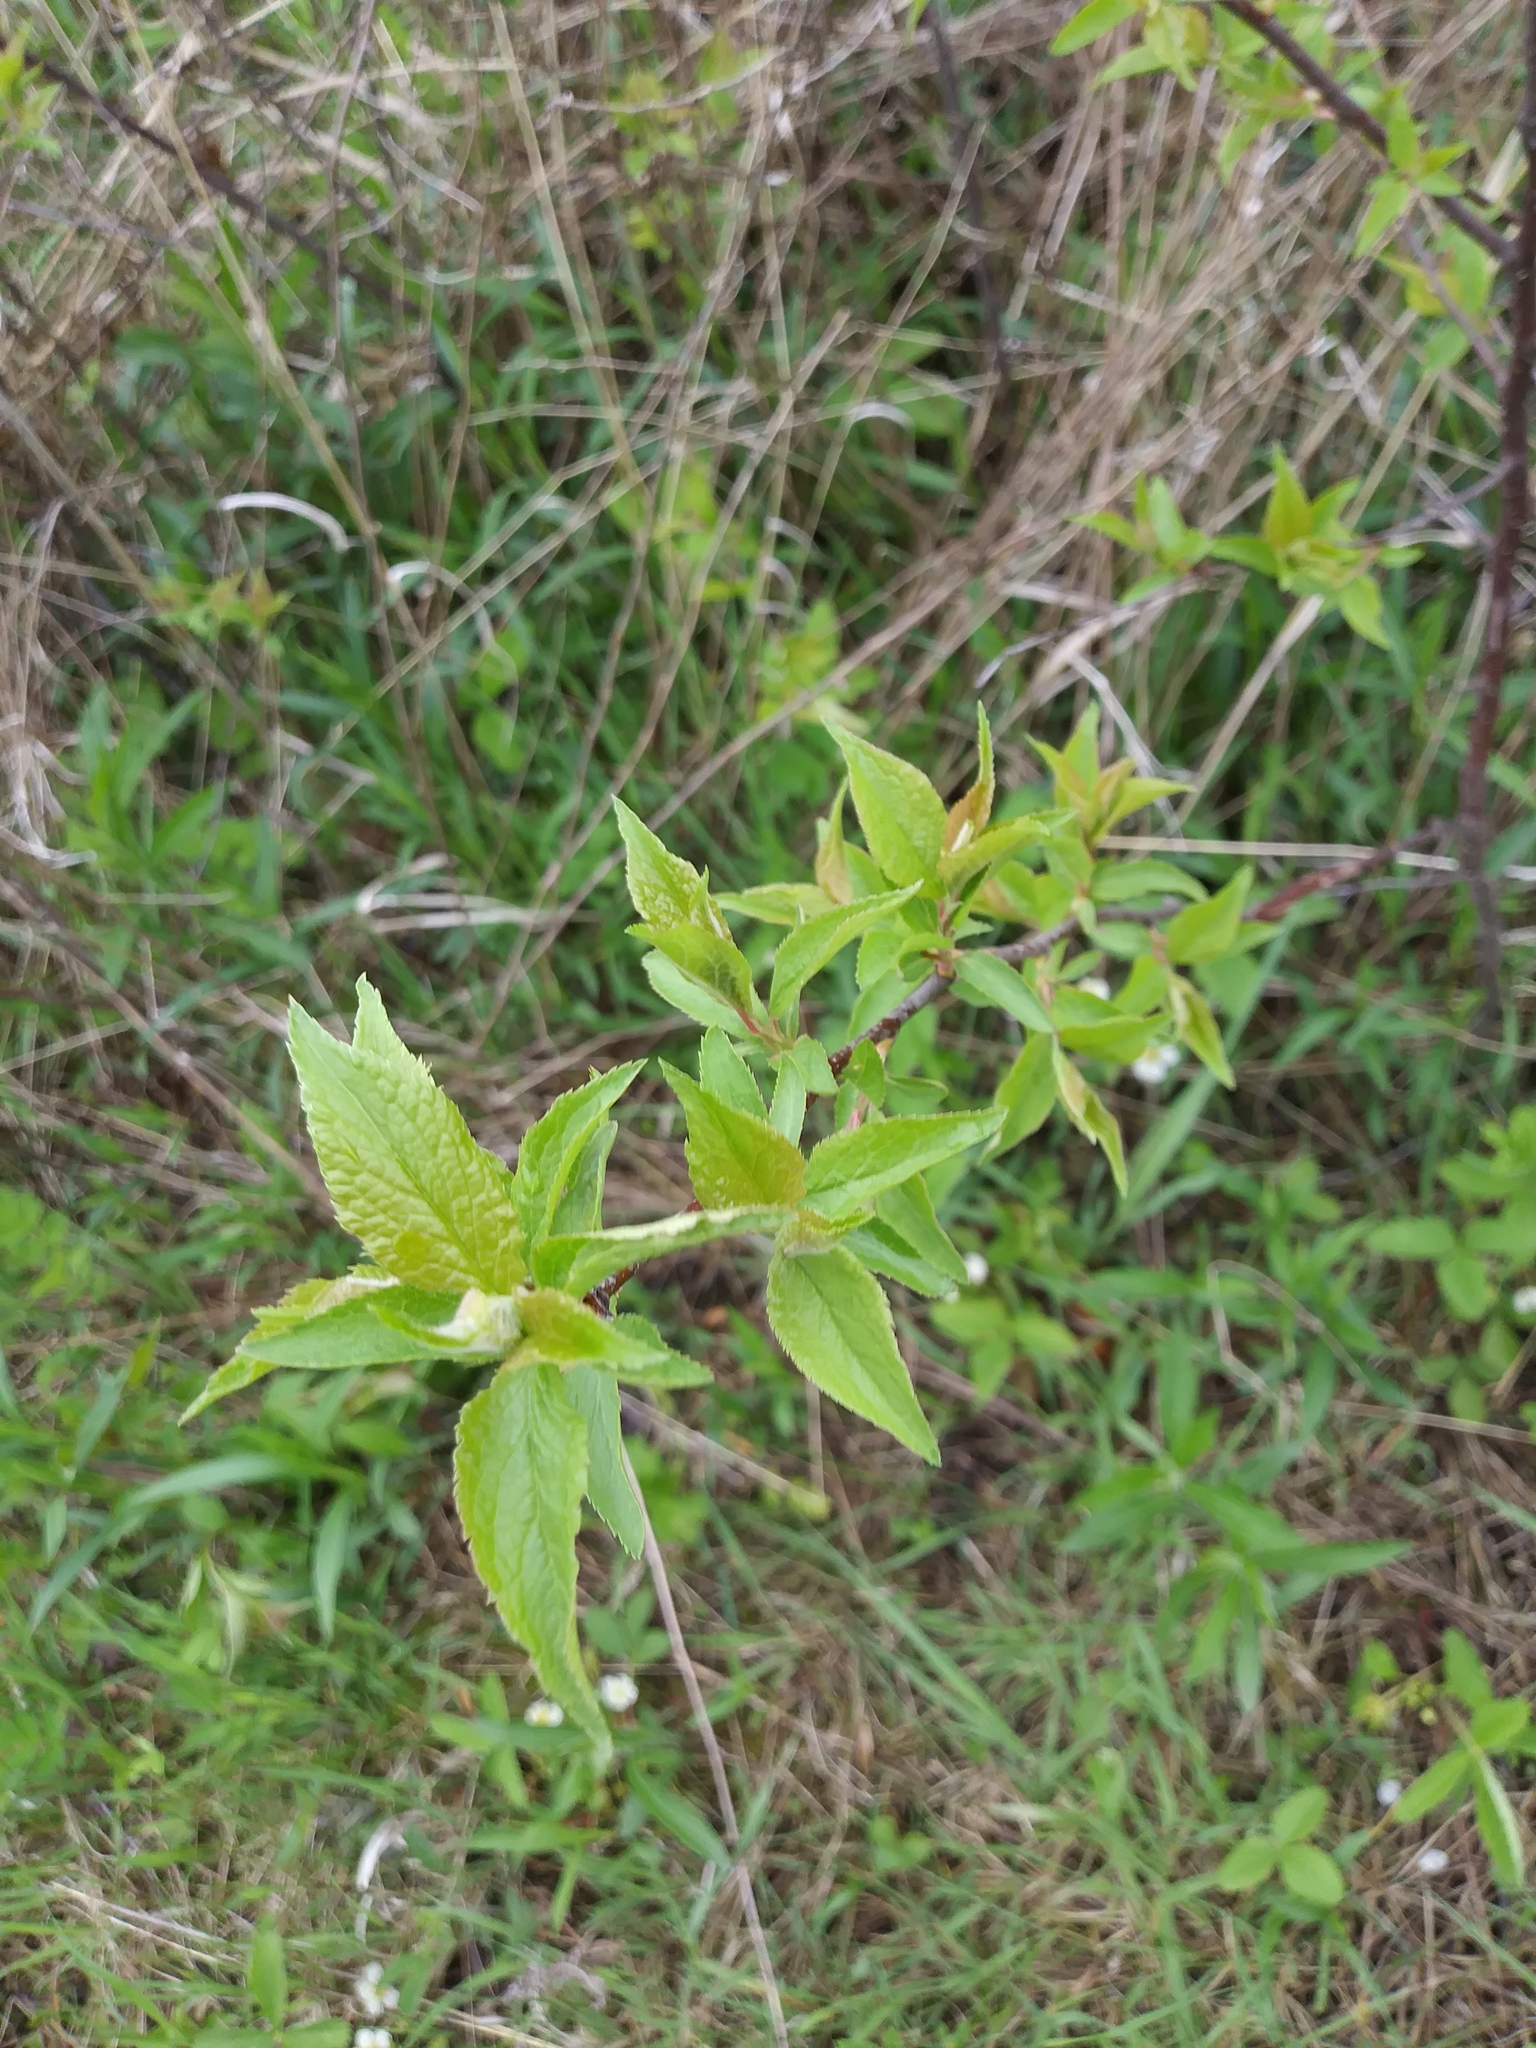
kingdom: Plantae
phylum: Tracheophyta
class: Magnoliopsida
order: Rosales
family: Rosaceae
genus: Prunus
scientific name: Prunus americana
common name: American plum
